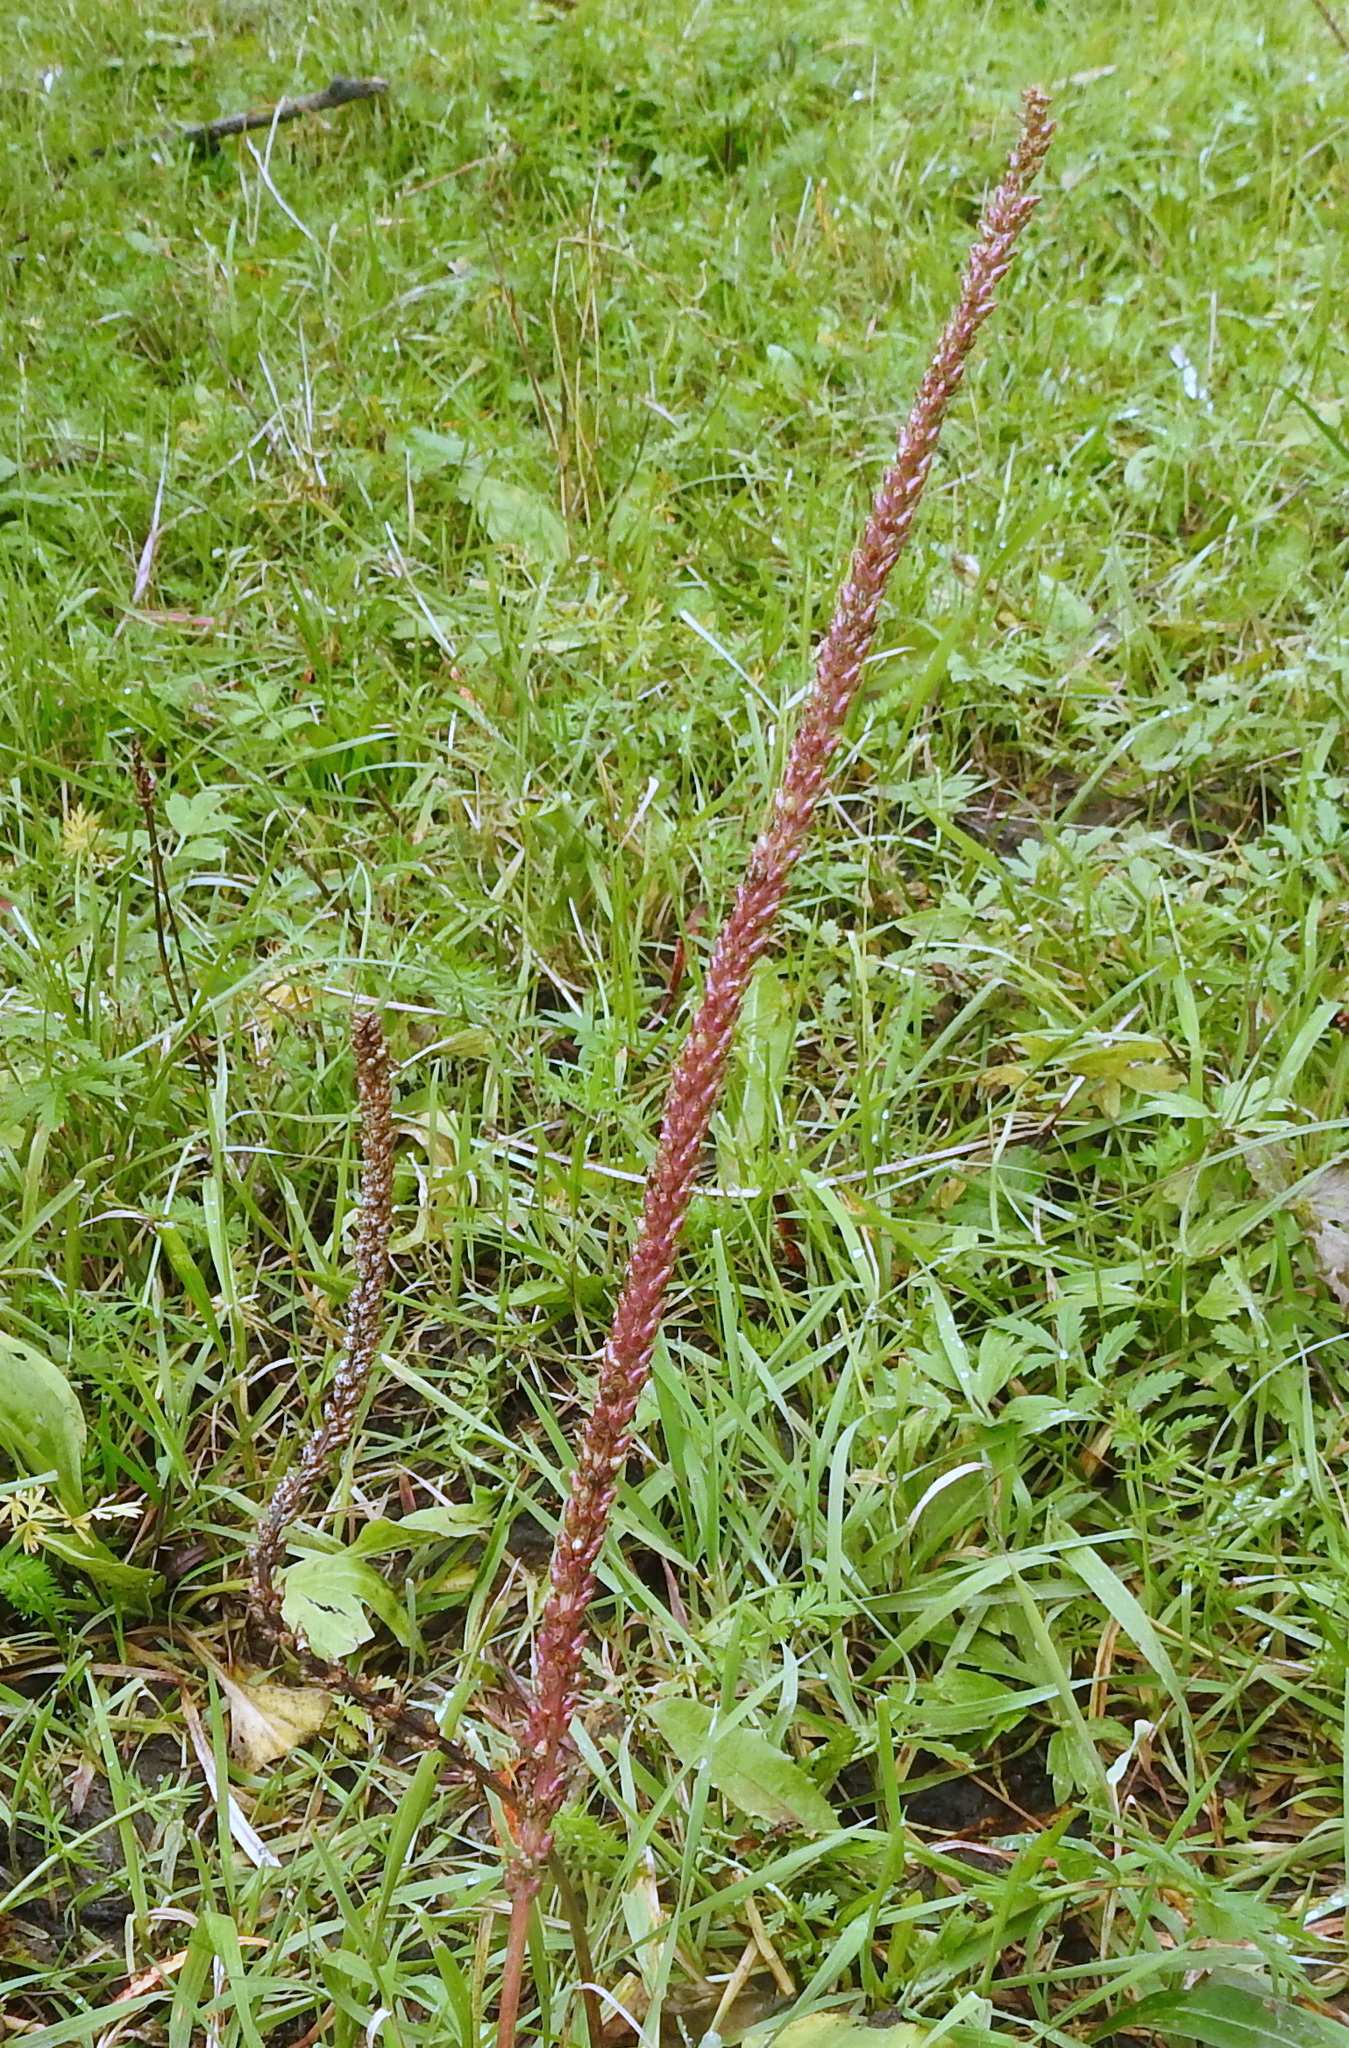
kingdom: Plantae
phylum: Tracheophyta
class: Magnoliopsida
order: Lamiales
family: Plantaginaceae
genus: Plantago
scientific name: Plantago major
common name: Common plantain
